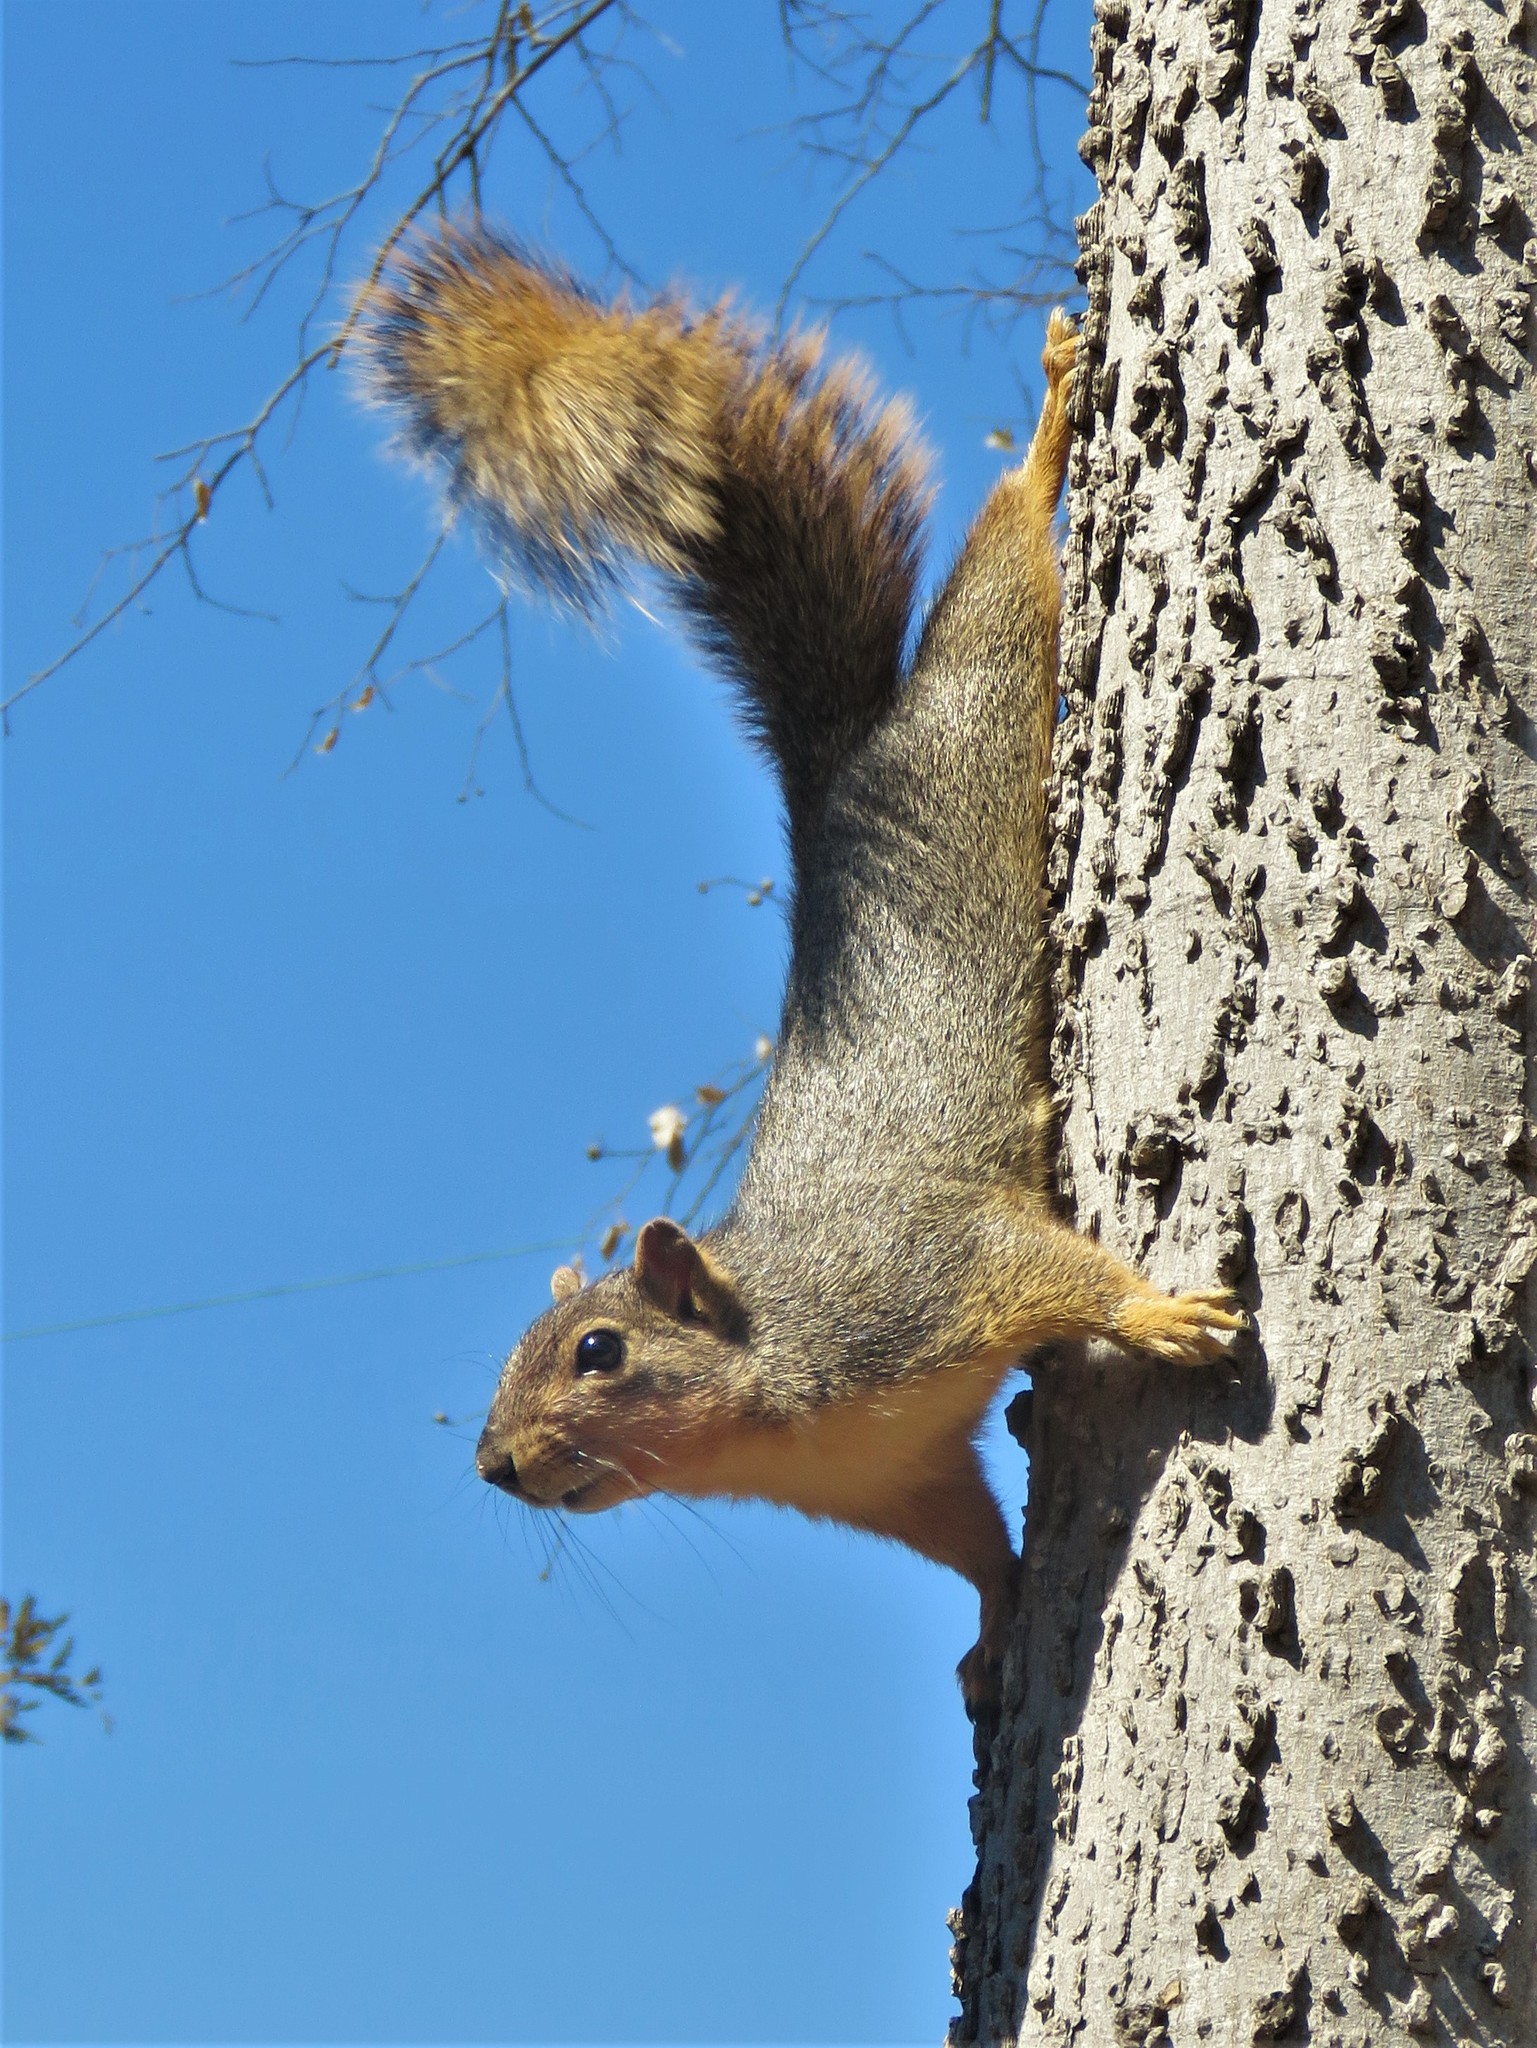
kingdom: Animalia
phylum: Chordata
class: Mammalia
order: Rodentia
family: Sciuridae
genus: Sciurus
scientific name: Sciurus niger
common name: Fox squirrel
